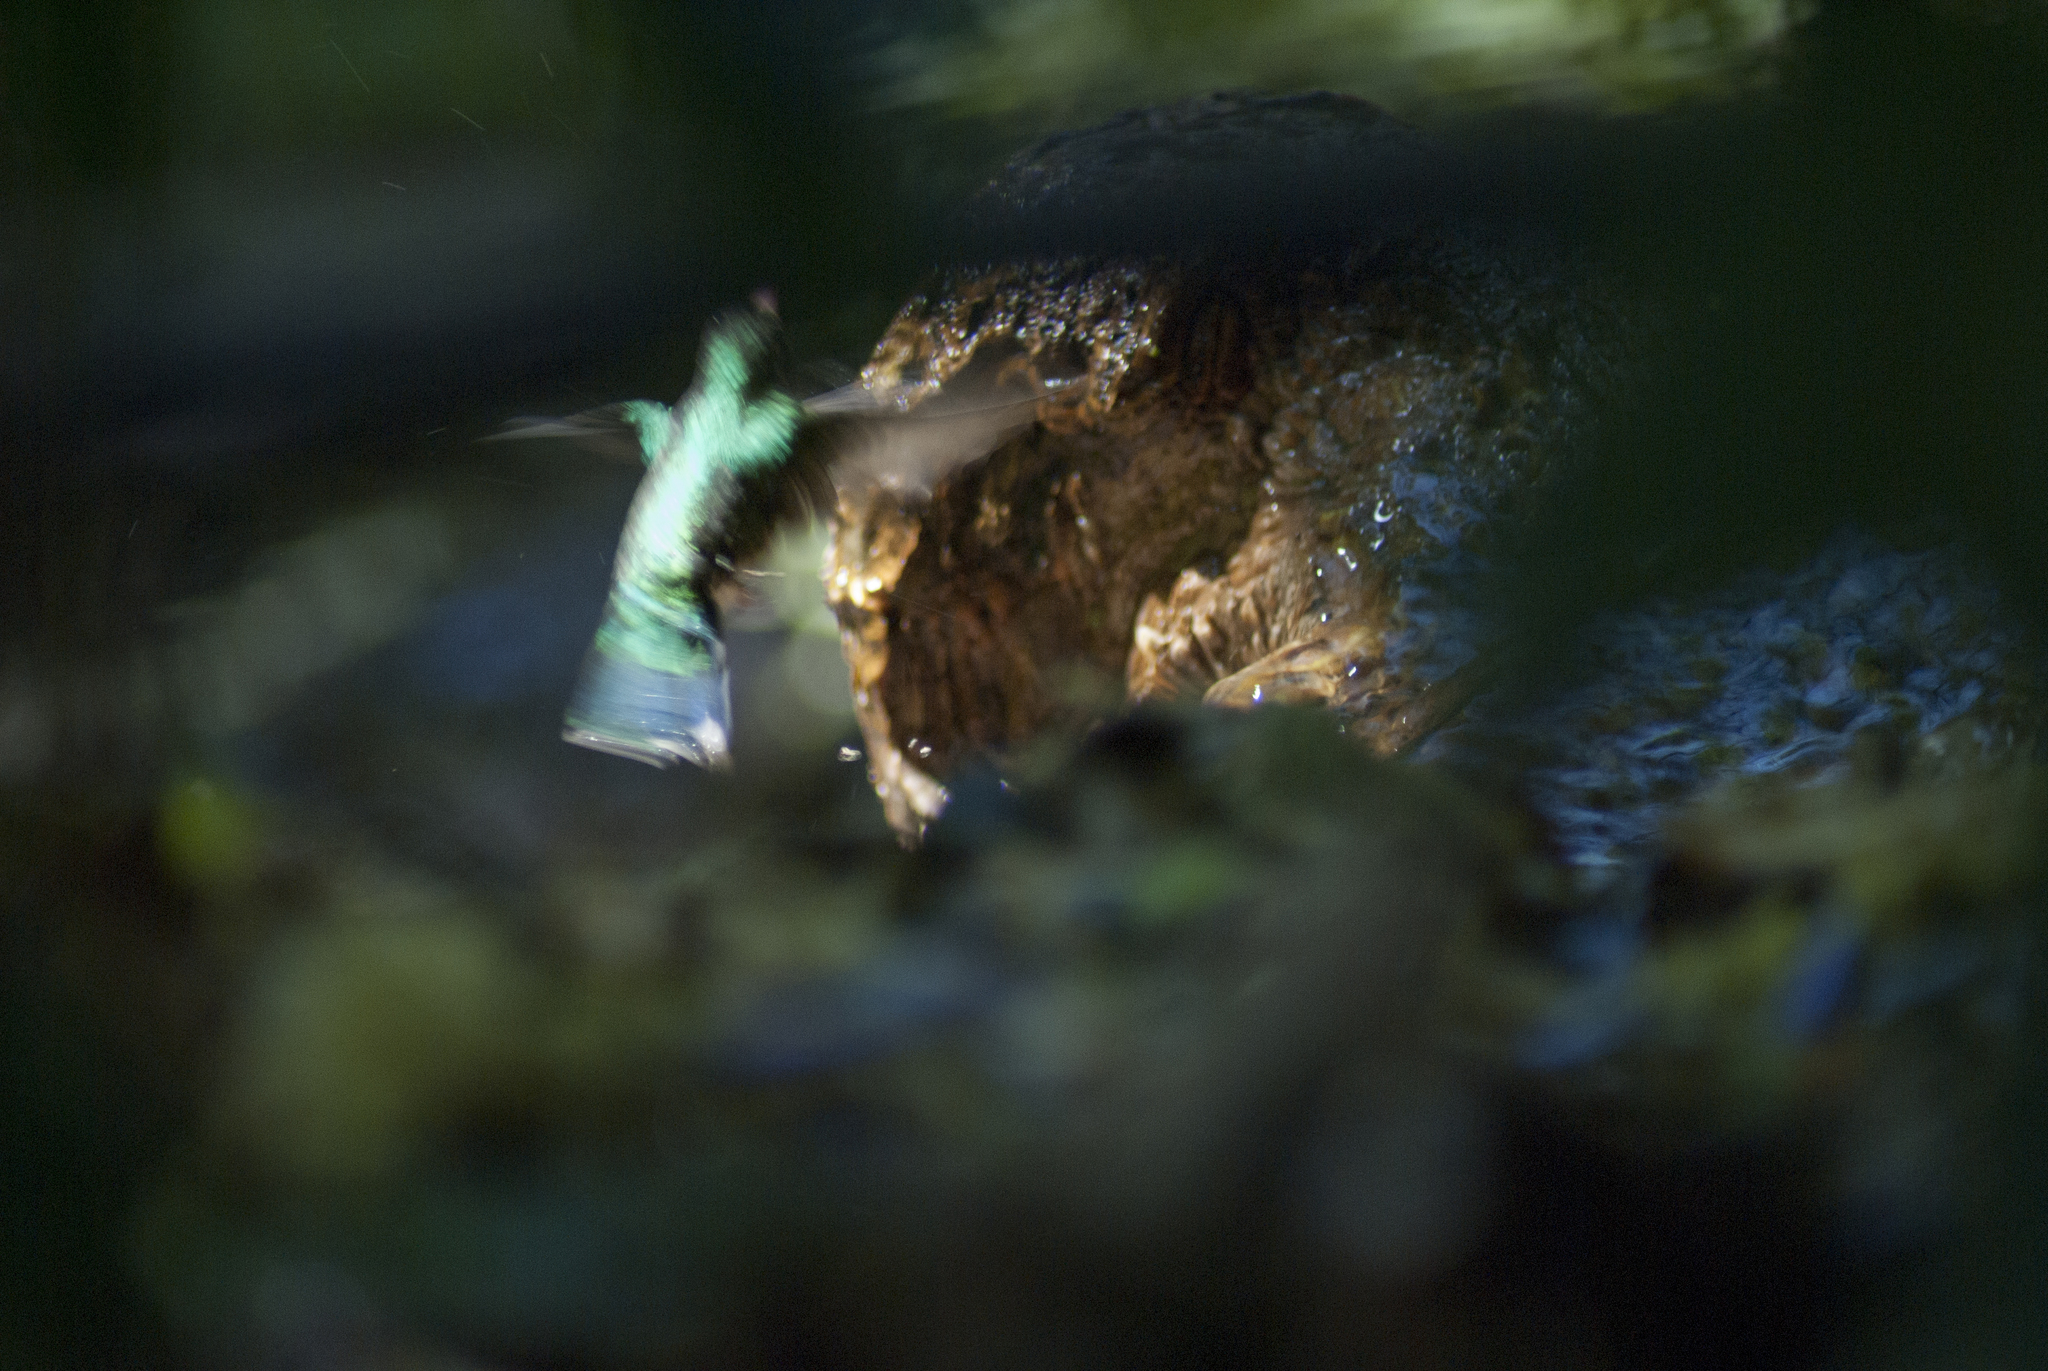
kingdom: Animalia
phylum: Chordata
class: Aves
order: Apodiformes
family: Trochilidae
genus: Chlorostilbon
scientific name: Chlorostilbon lucidus
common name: Glittering-bellied emerald
